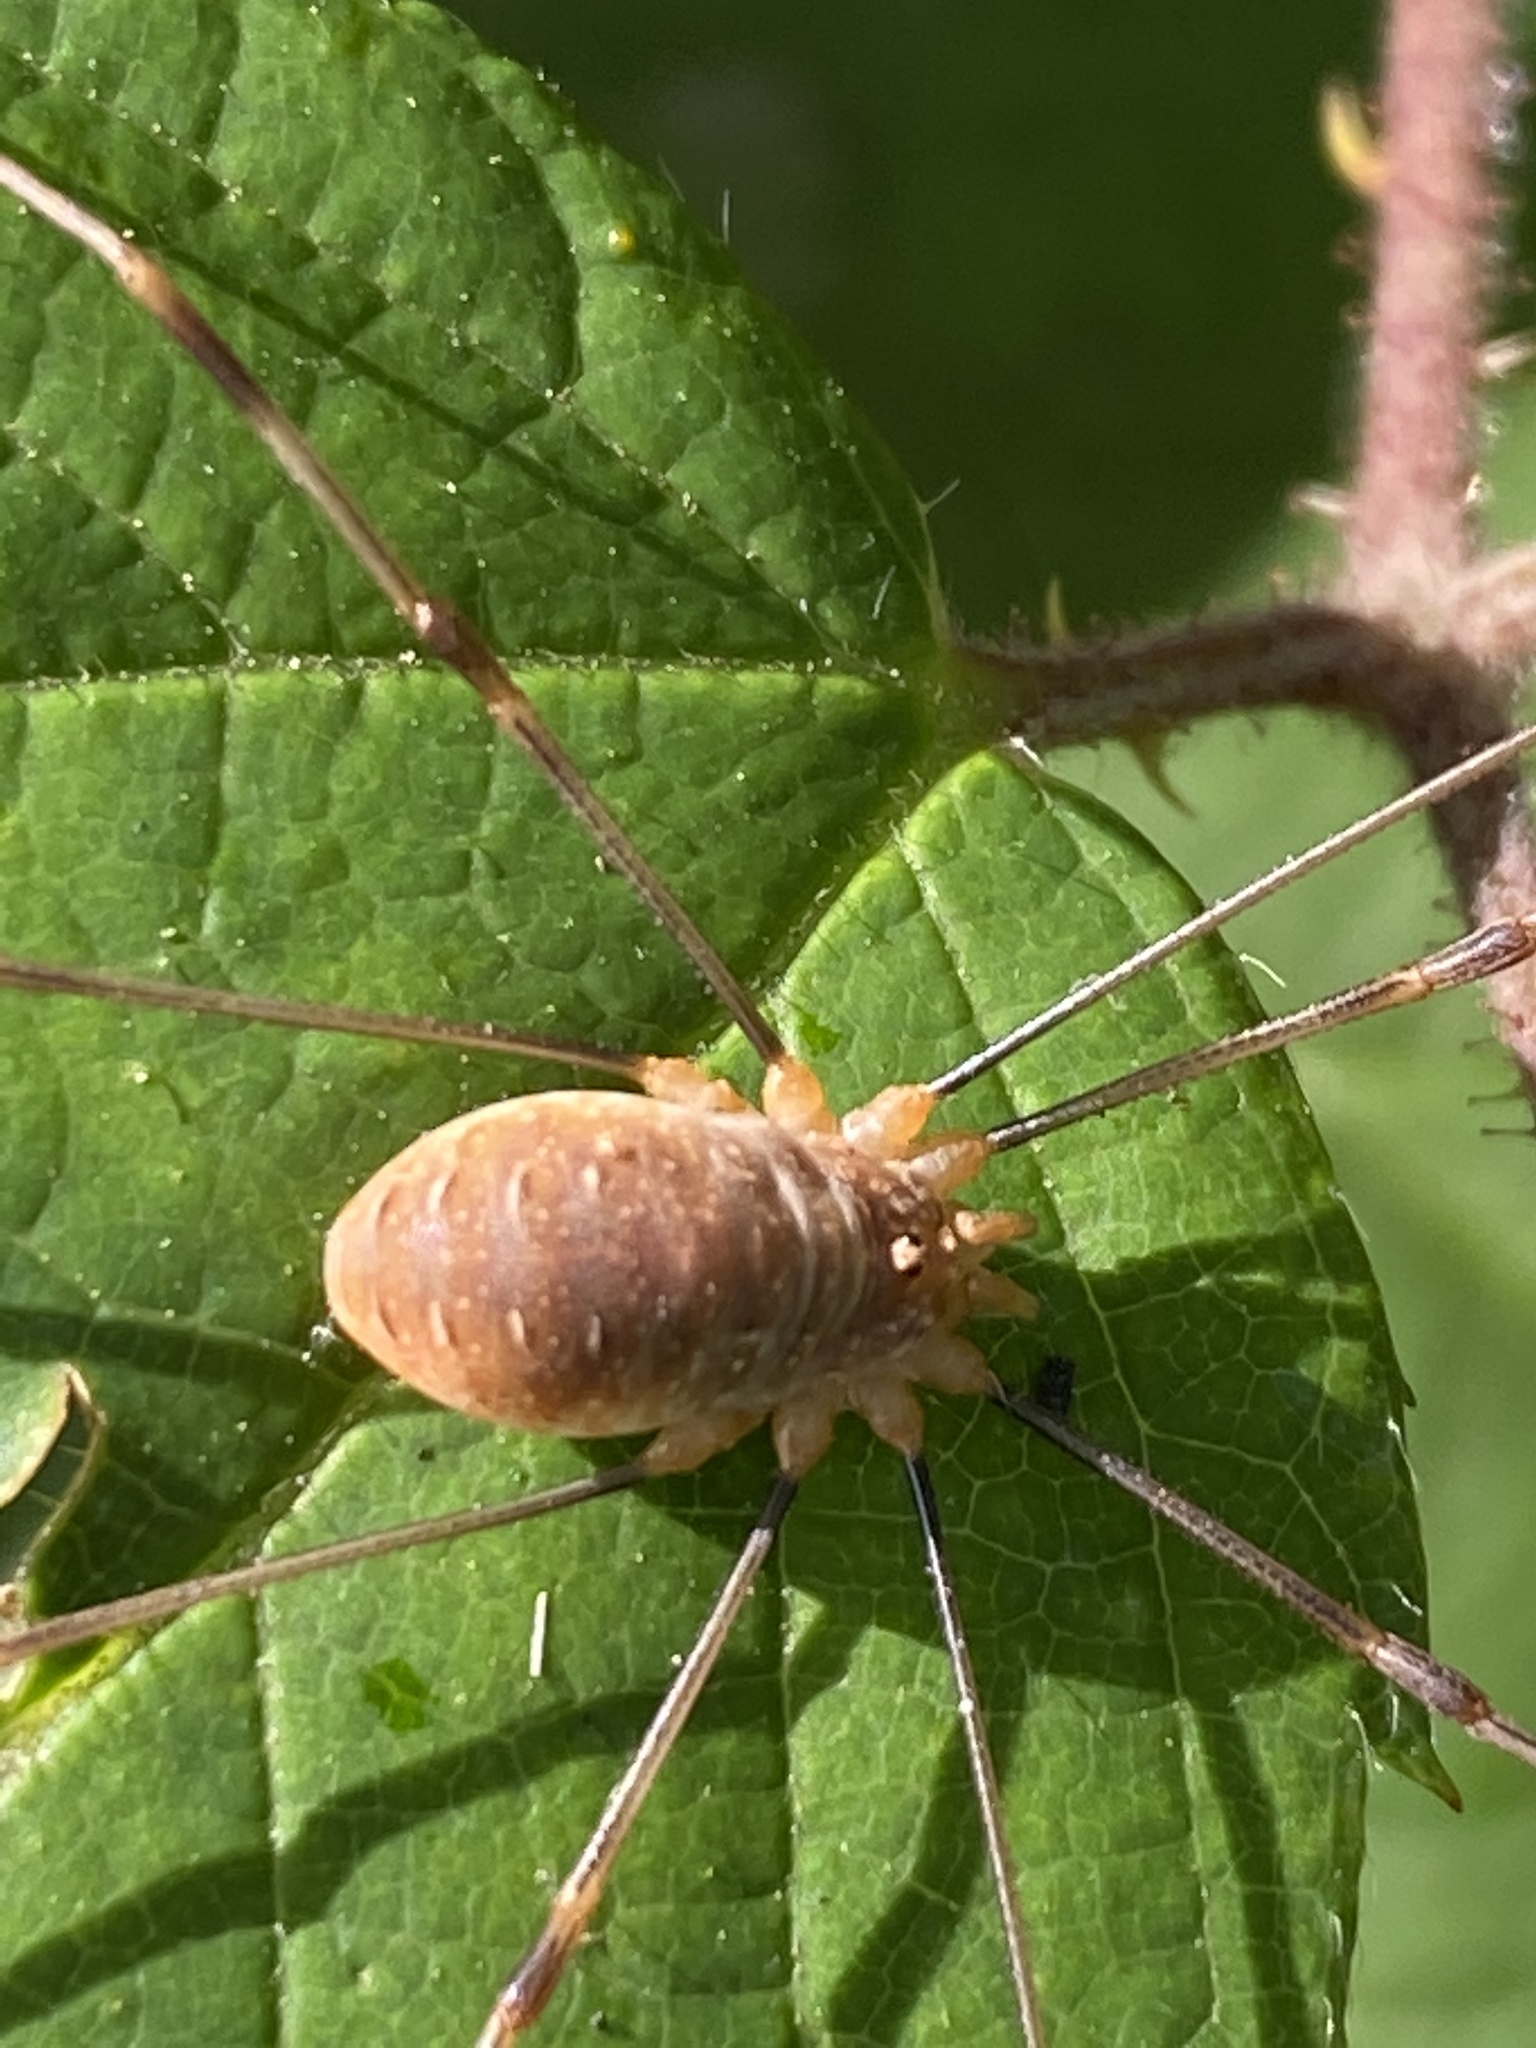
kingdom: Animalia
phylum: Arthropoda
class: Arachnida
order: Opiliones
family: Phalangiidae
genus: Opilio
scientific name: Opilio canestrinii
